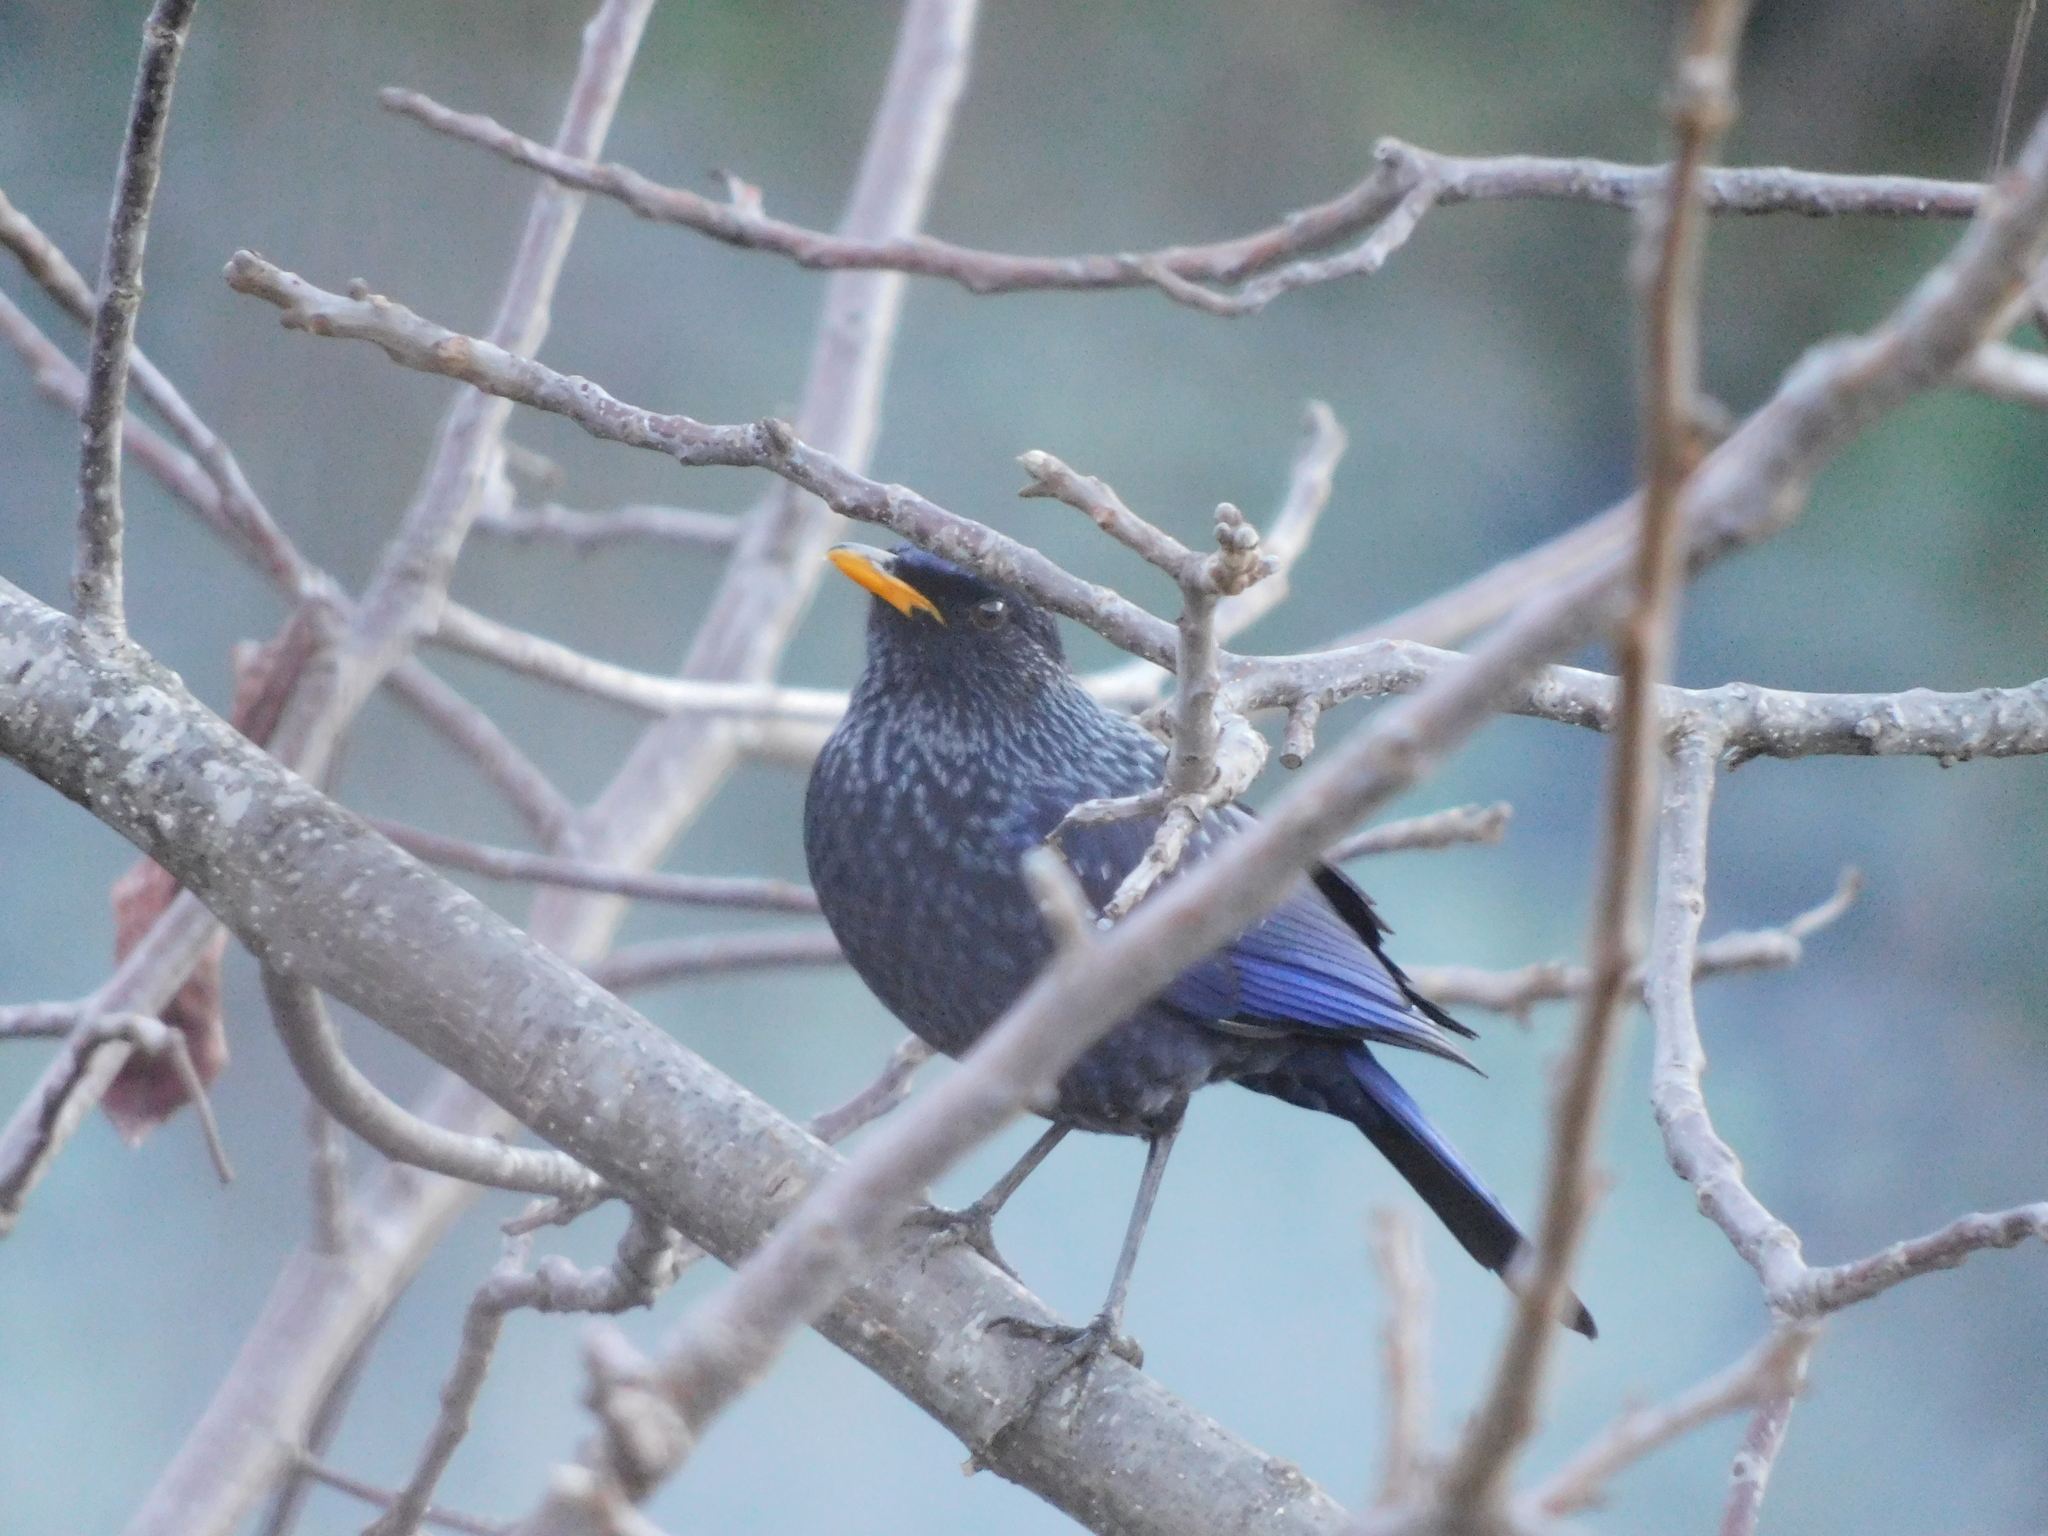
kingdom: Animalia
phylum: Chordata
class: Aves
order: Passeriformes
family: Muscicapidae
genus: Myophonus
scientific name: Myophonus caeruleus
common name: Blue whistling-thrush
